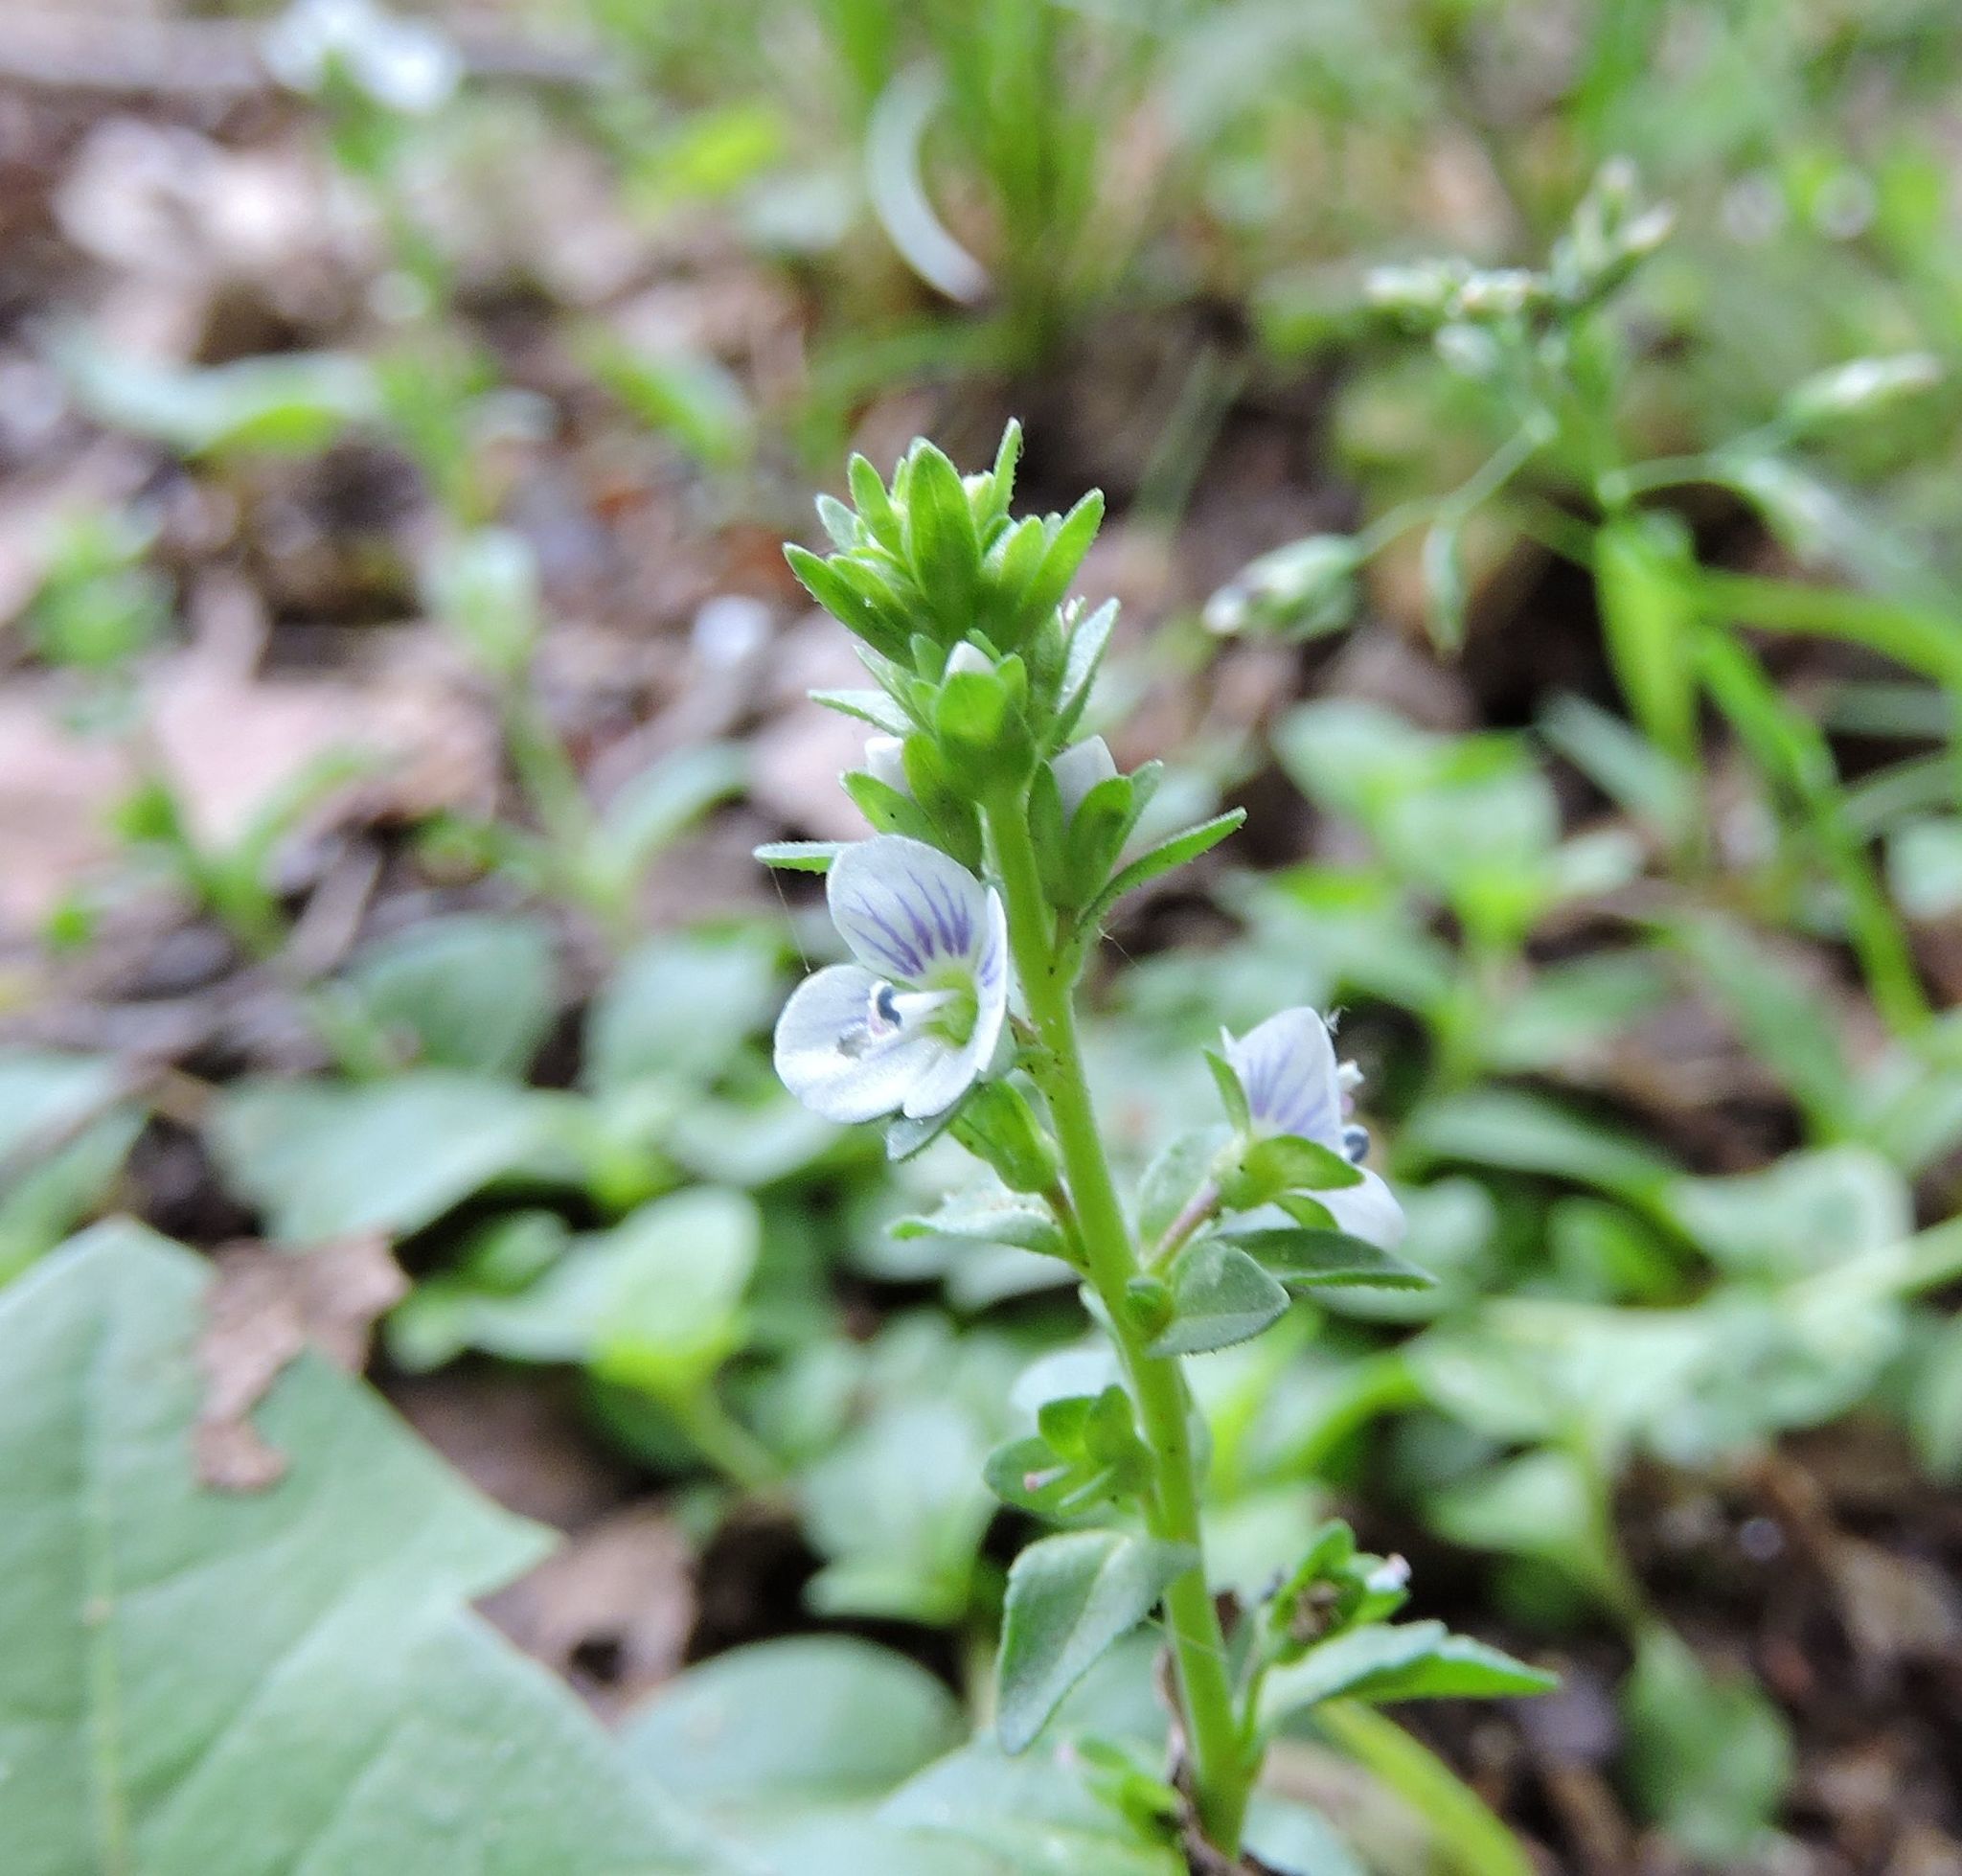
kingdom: Plantae
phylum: Tracheophyta
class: Magnoliopsida
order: Lamiales
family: Plantaginaceae
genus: Veronica
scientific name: Veronica serpyllifolia
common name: Thyme-leaved speedwell
